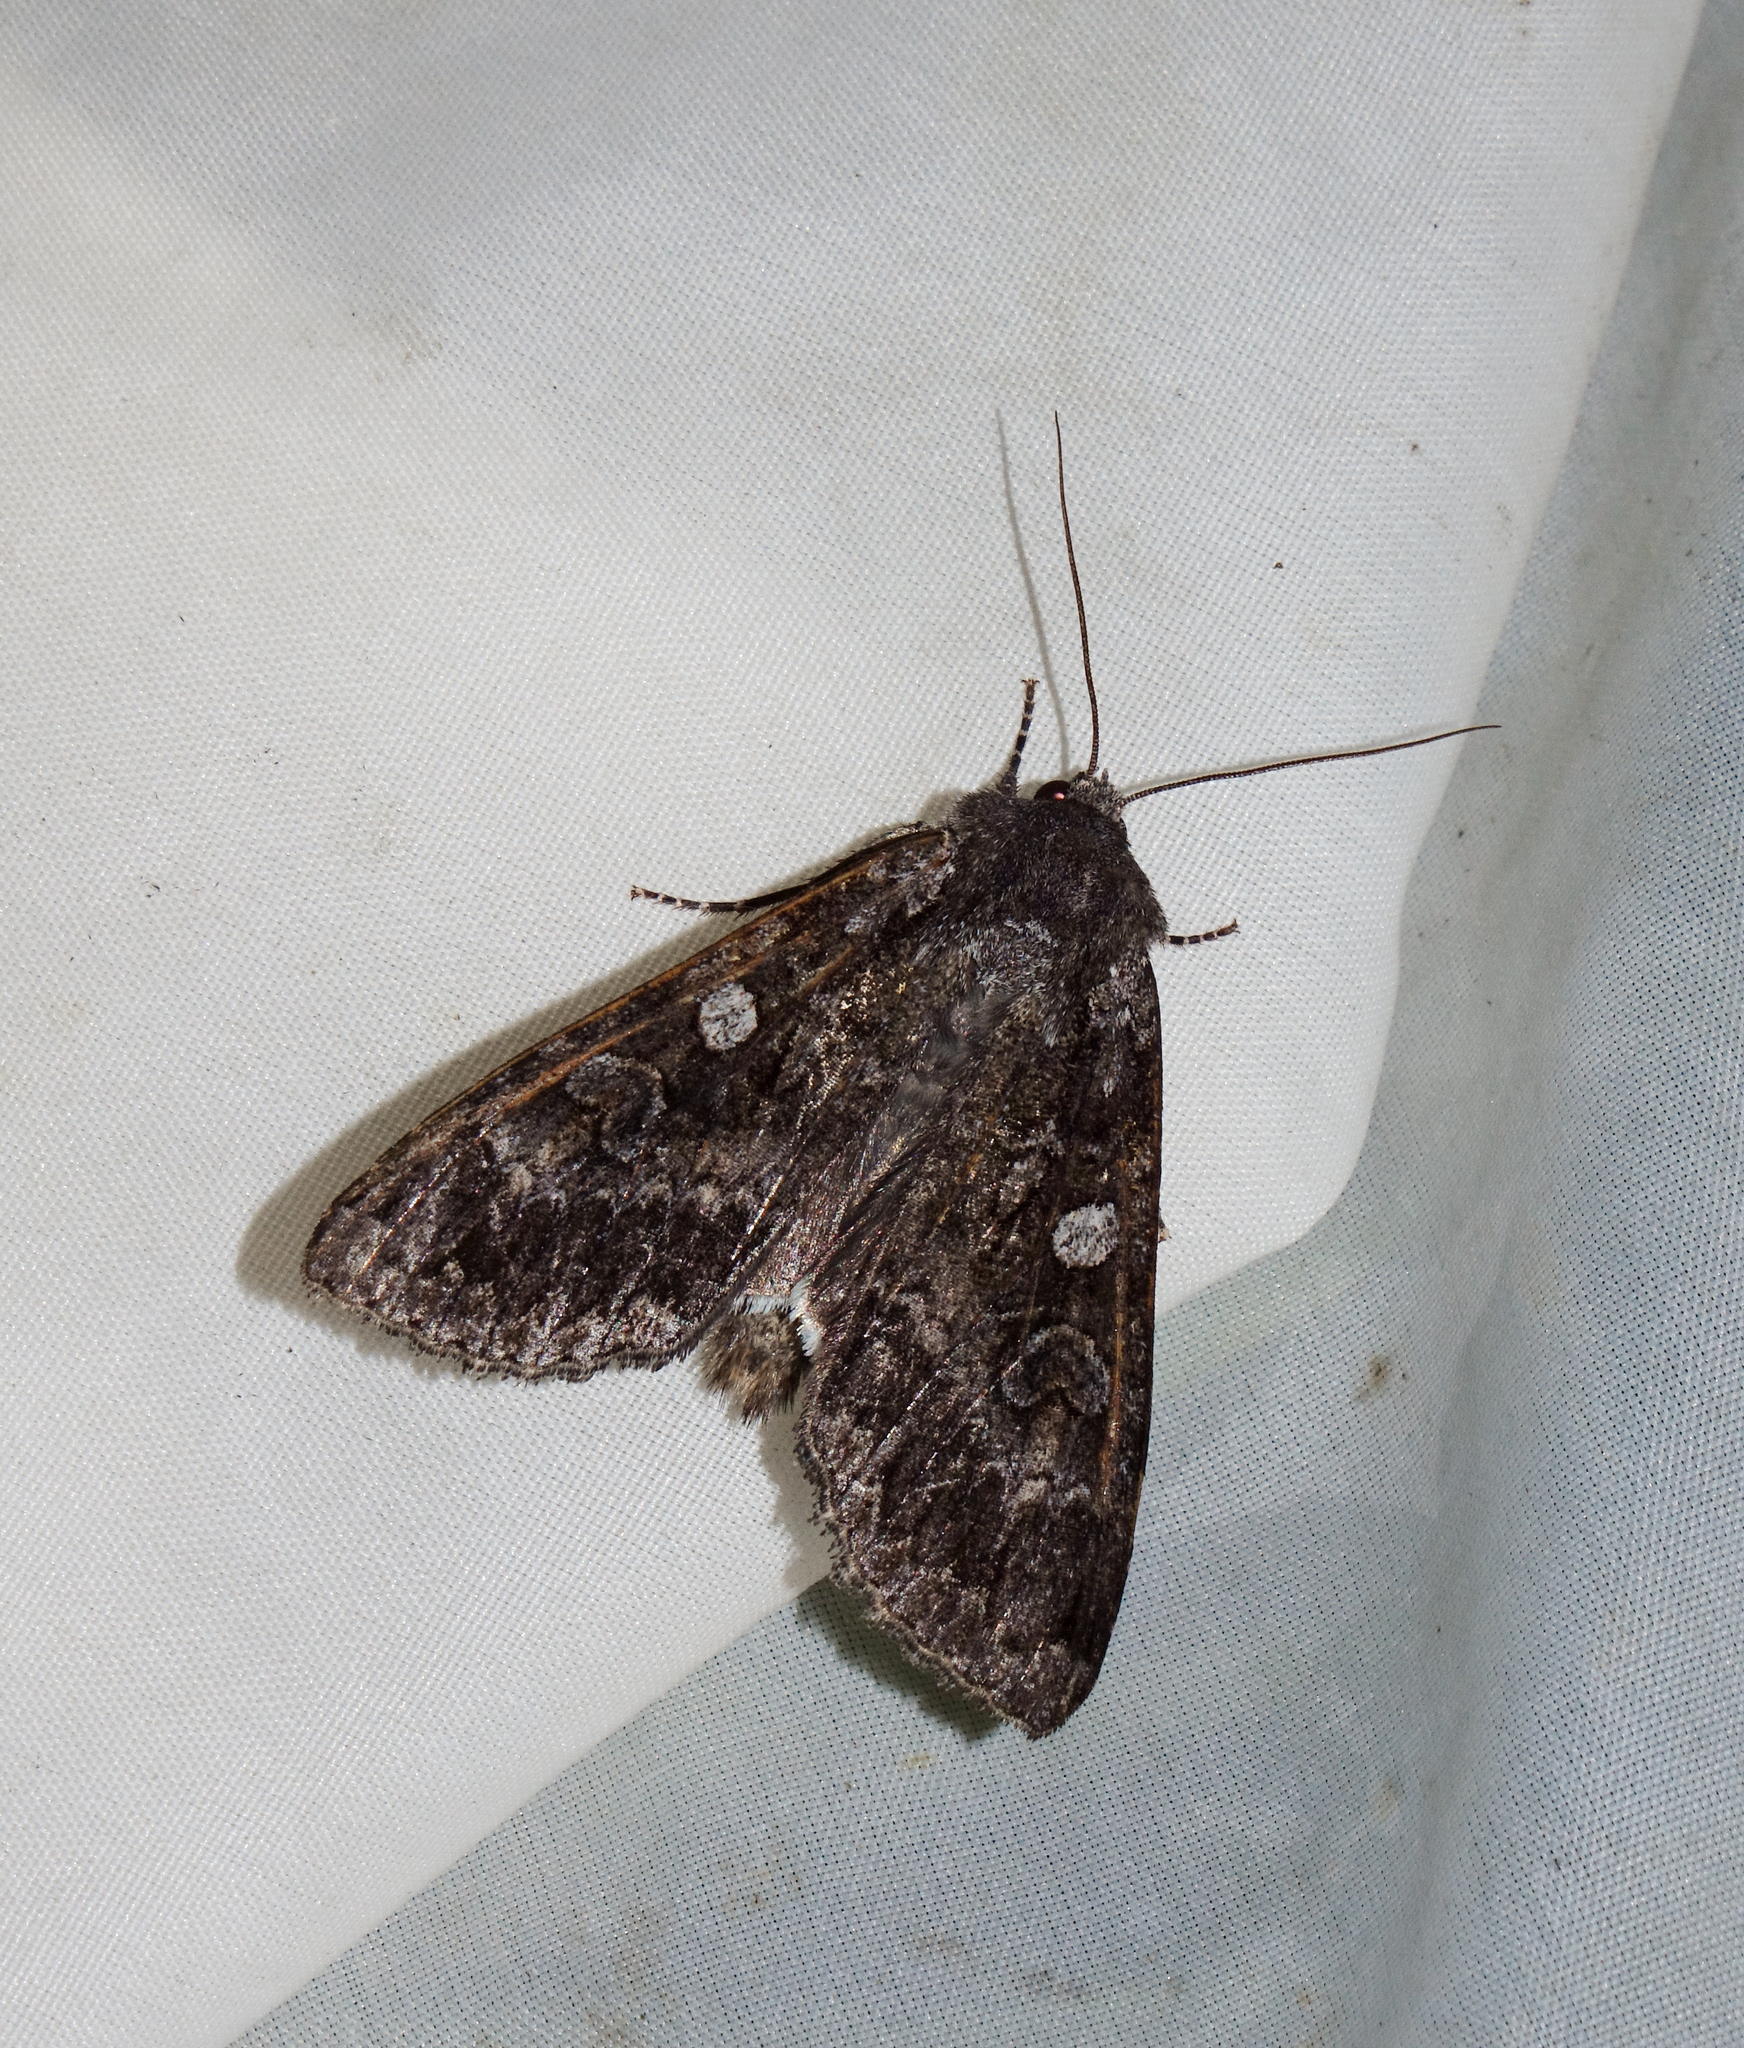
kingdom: Animalia
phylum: Arthropoda
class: Insecta
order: Lepidoptera
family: Noctuidae
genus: Eurois
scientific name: Eurois occulta
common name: Great brocade
